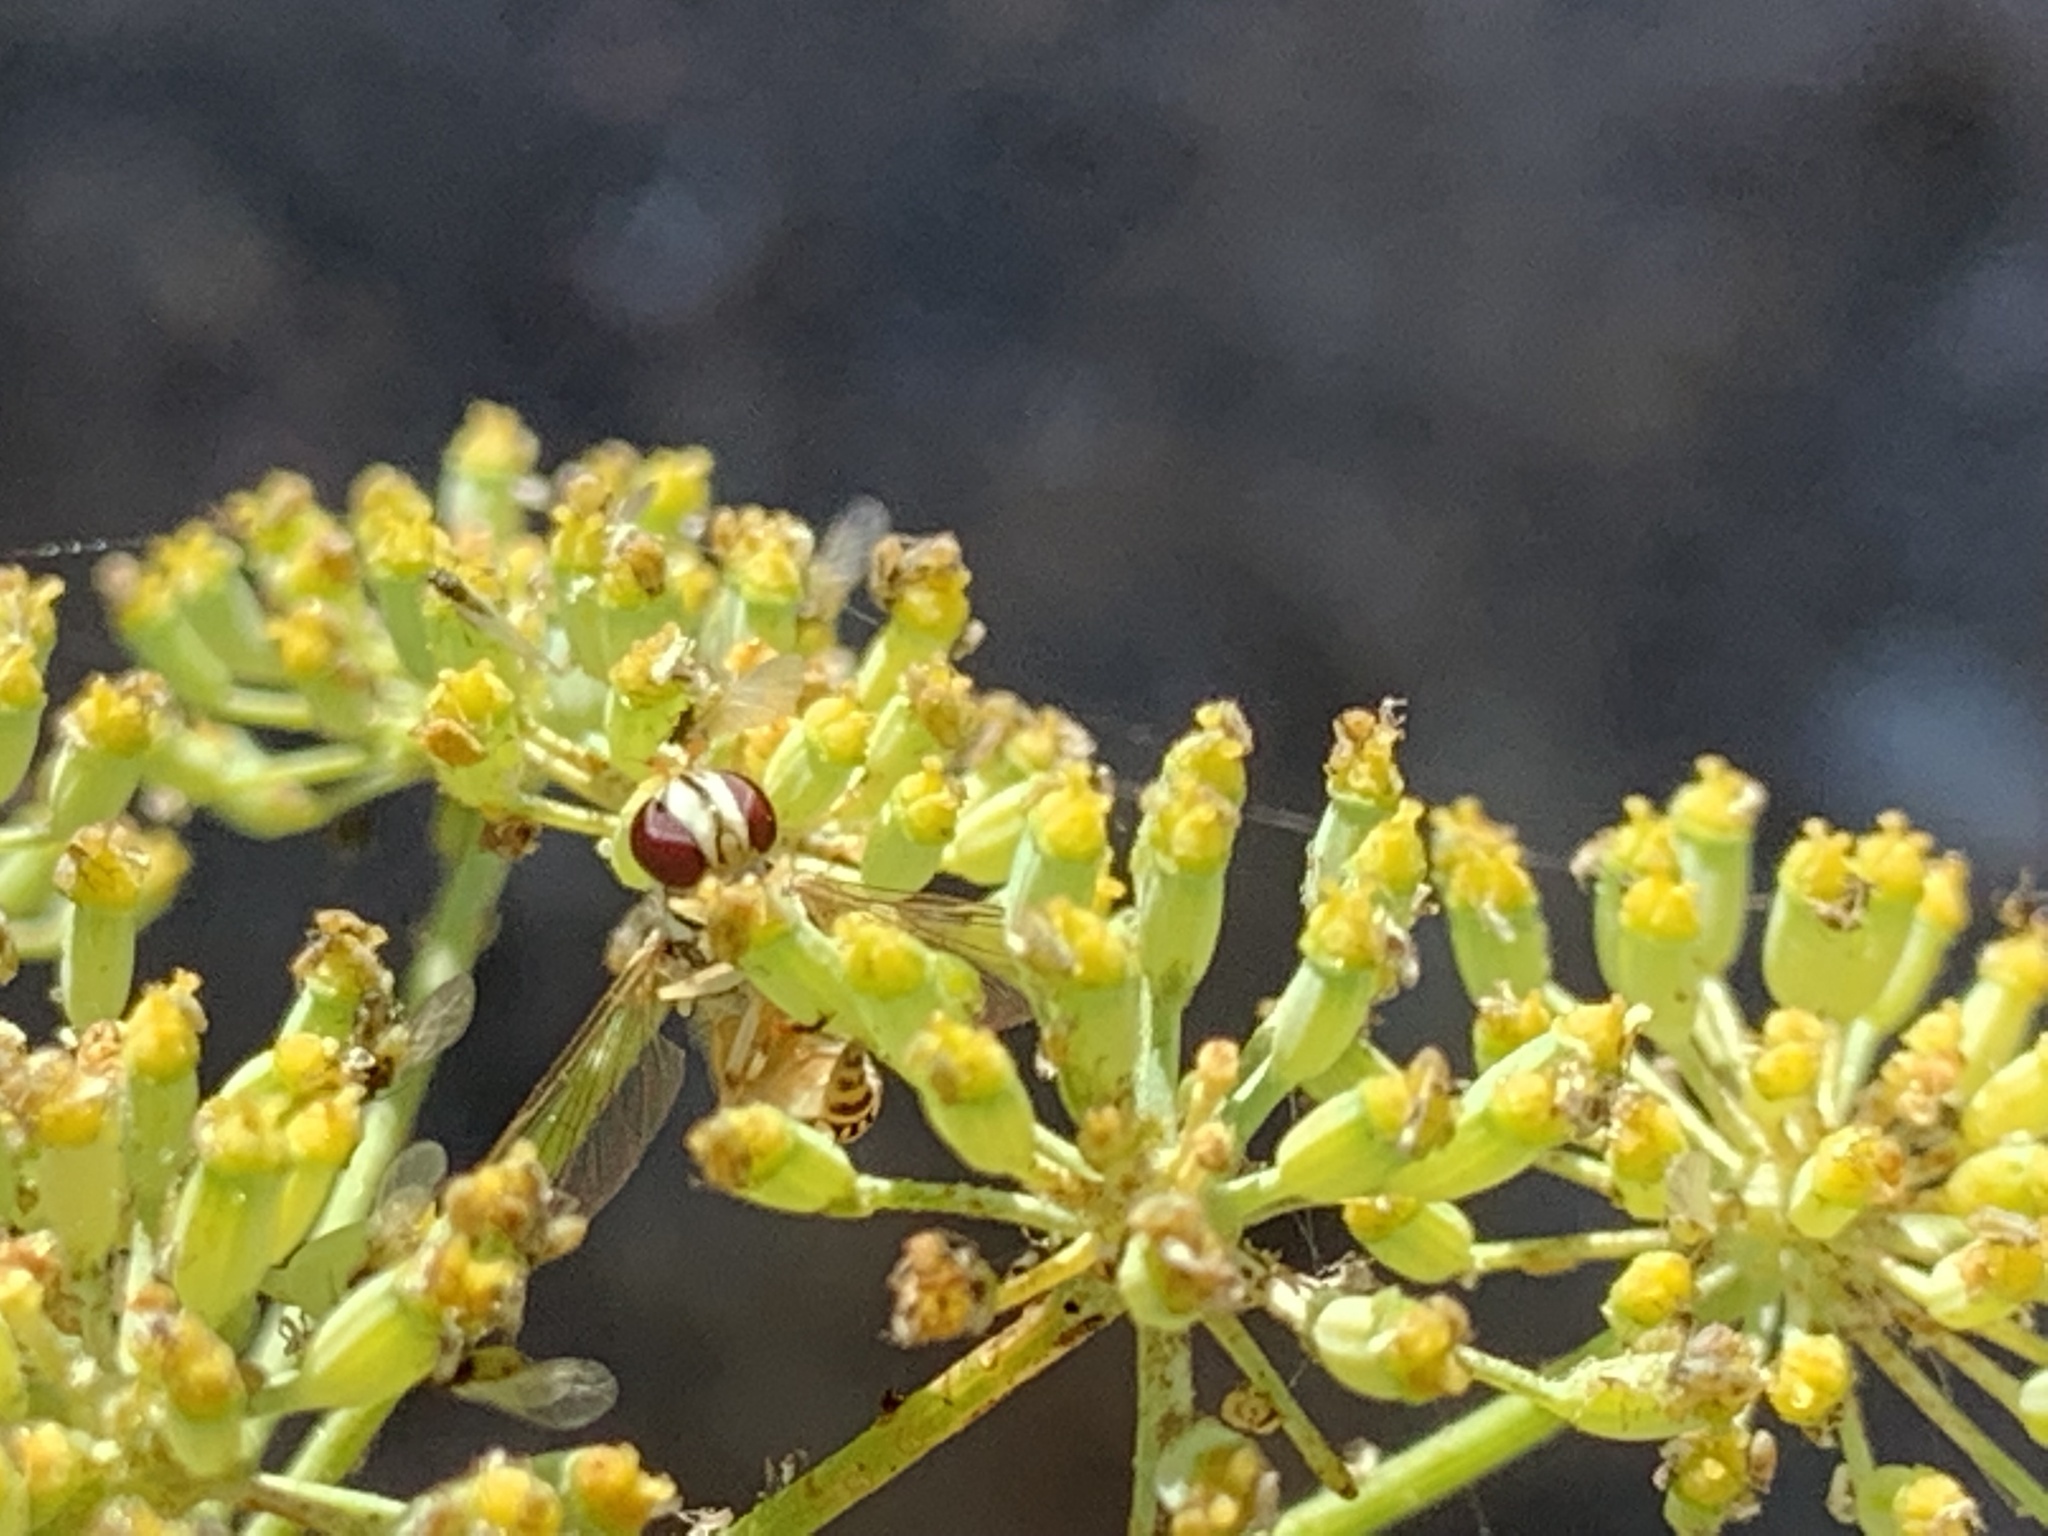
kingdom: Animalia
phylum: Arthropoda
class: Insecta
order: Diptera
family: Syrphidae
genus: Allograpta
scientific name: Allograpta obliqua
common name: Common oblique syrphid
